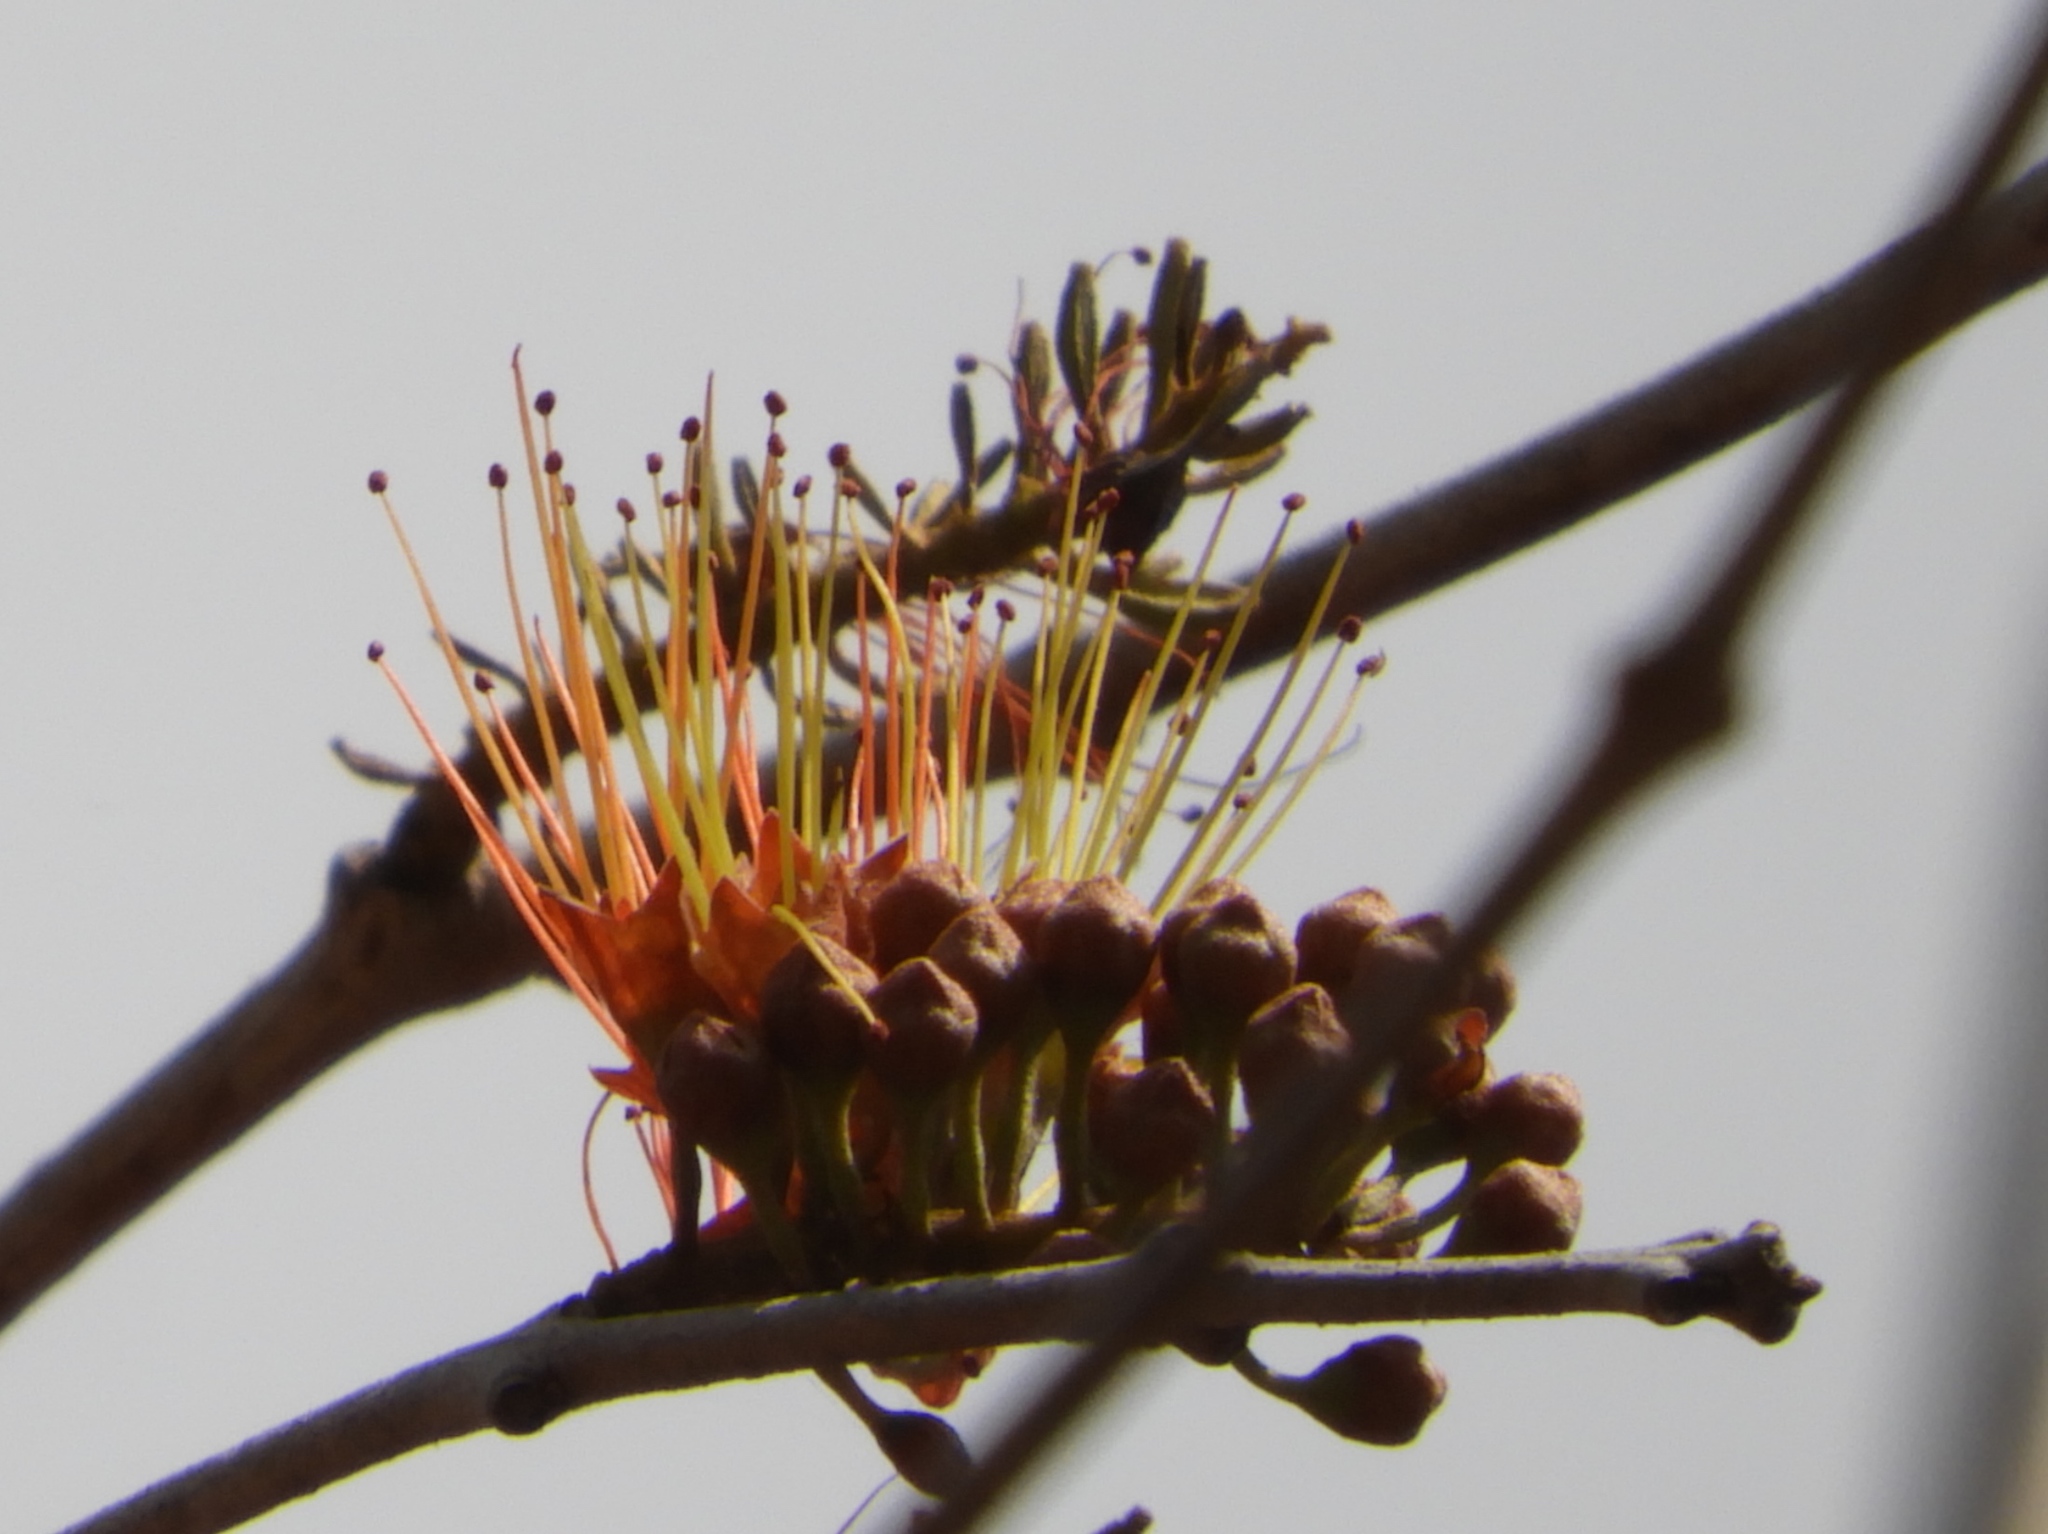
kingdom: Plantae
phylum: Tracheophyta
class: Magnoliopsida
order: Myrtales
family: Combretaceae
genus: Combretum
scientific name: Combretum farinosum
